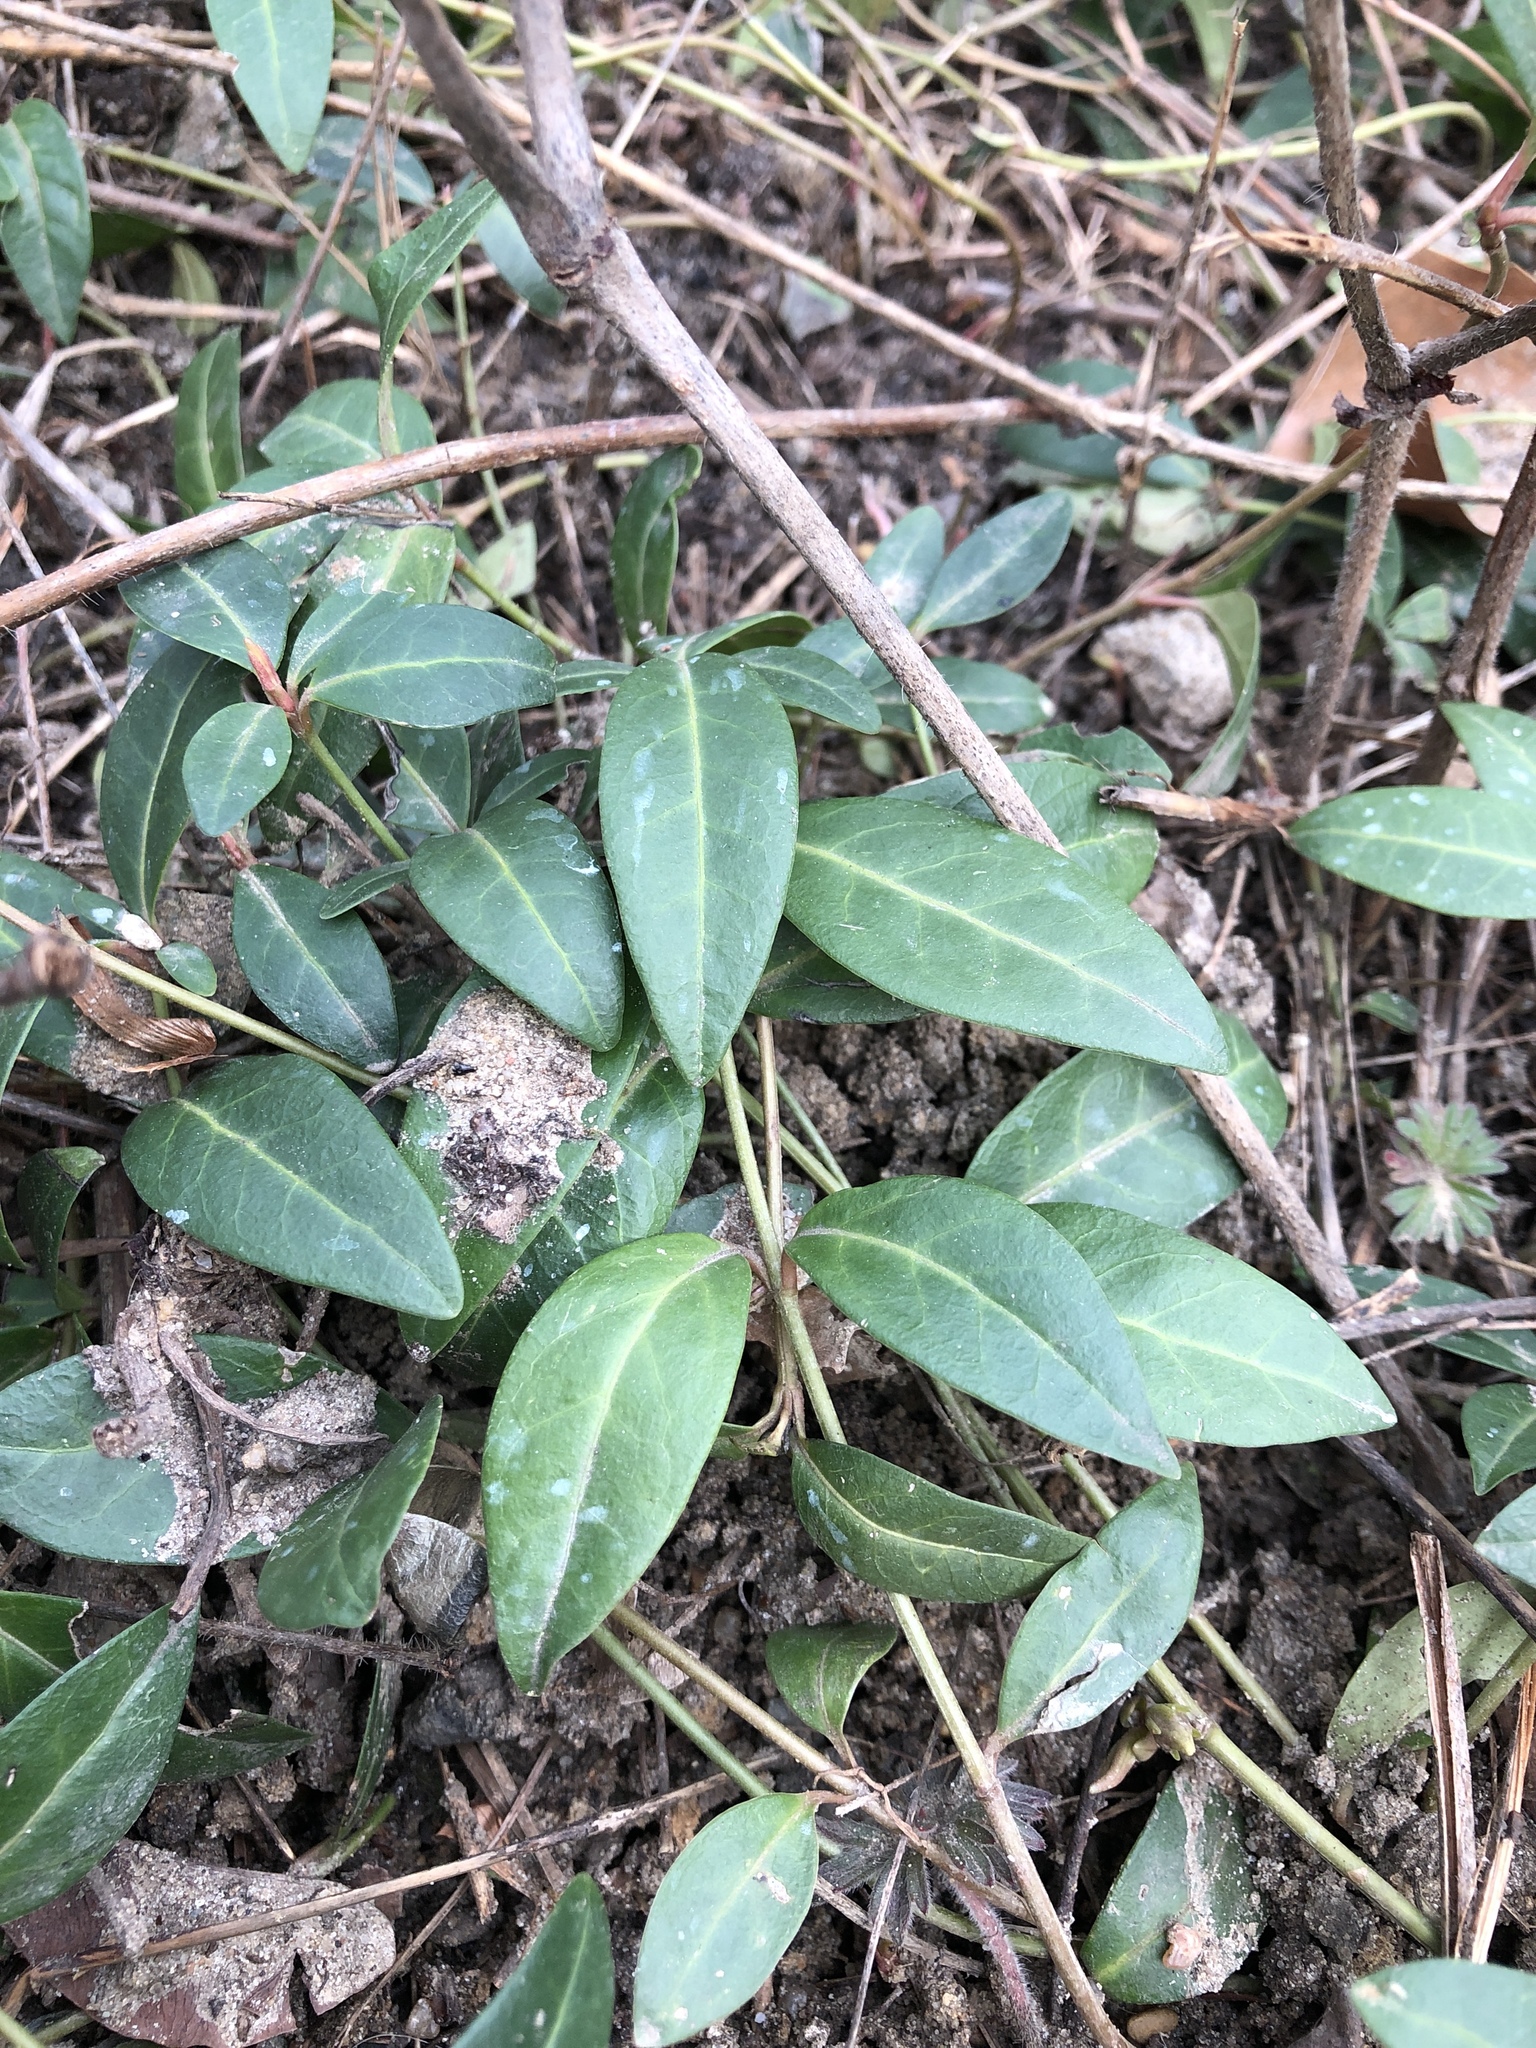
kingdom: Plantae
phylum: Tracheophyta
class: Magnoliopsida
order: Gentianales
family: Apocynaceae
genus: Vinca
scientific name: Vinca minor
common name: Lesser periwinkle
